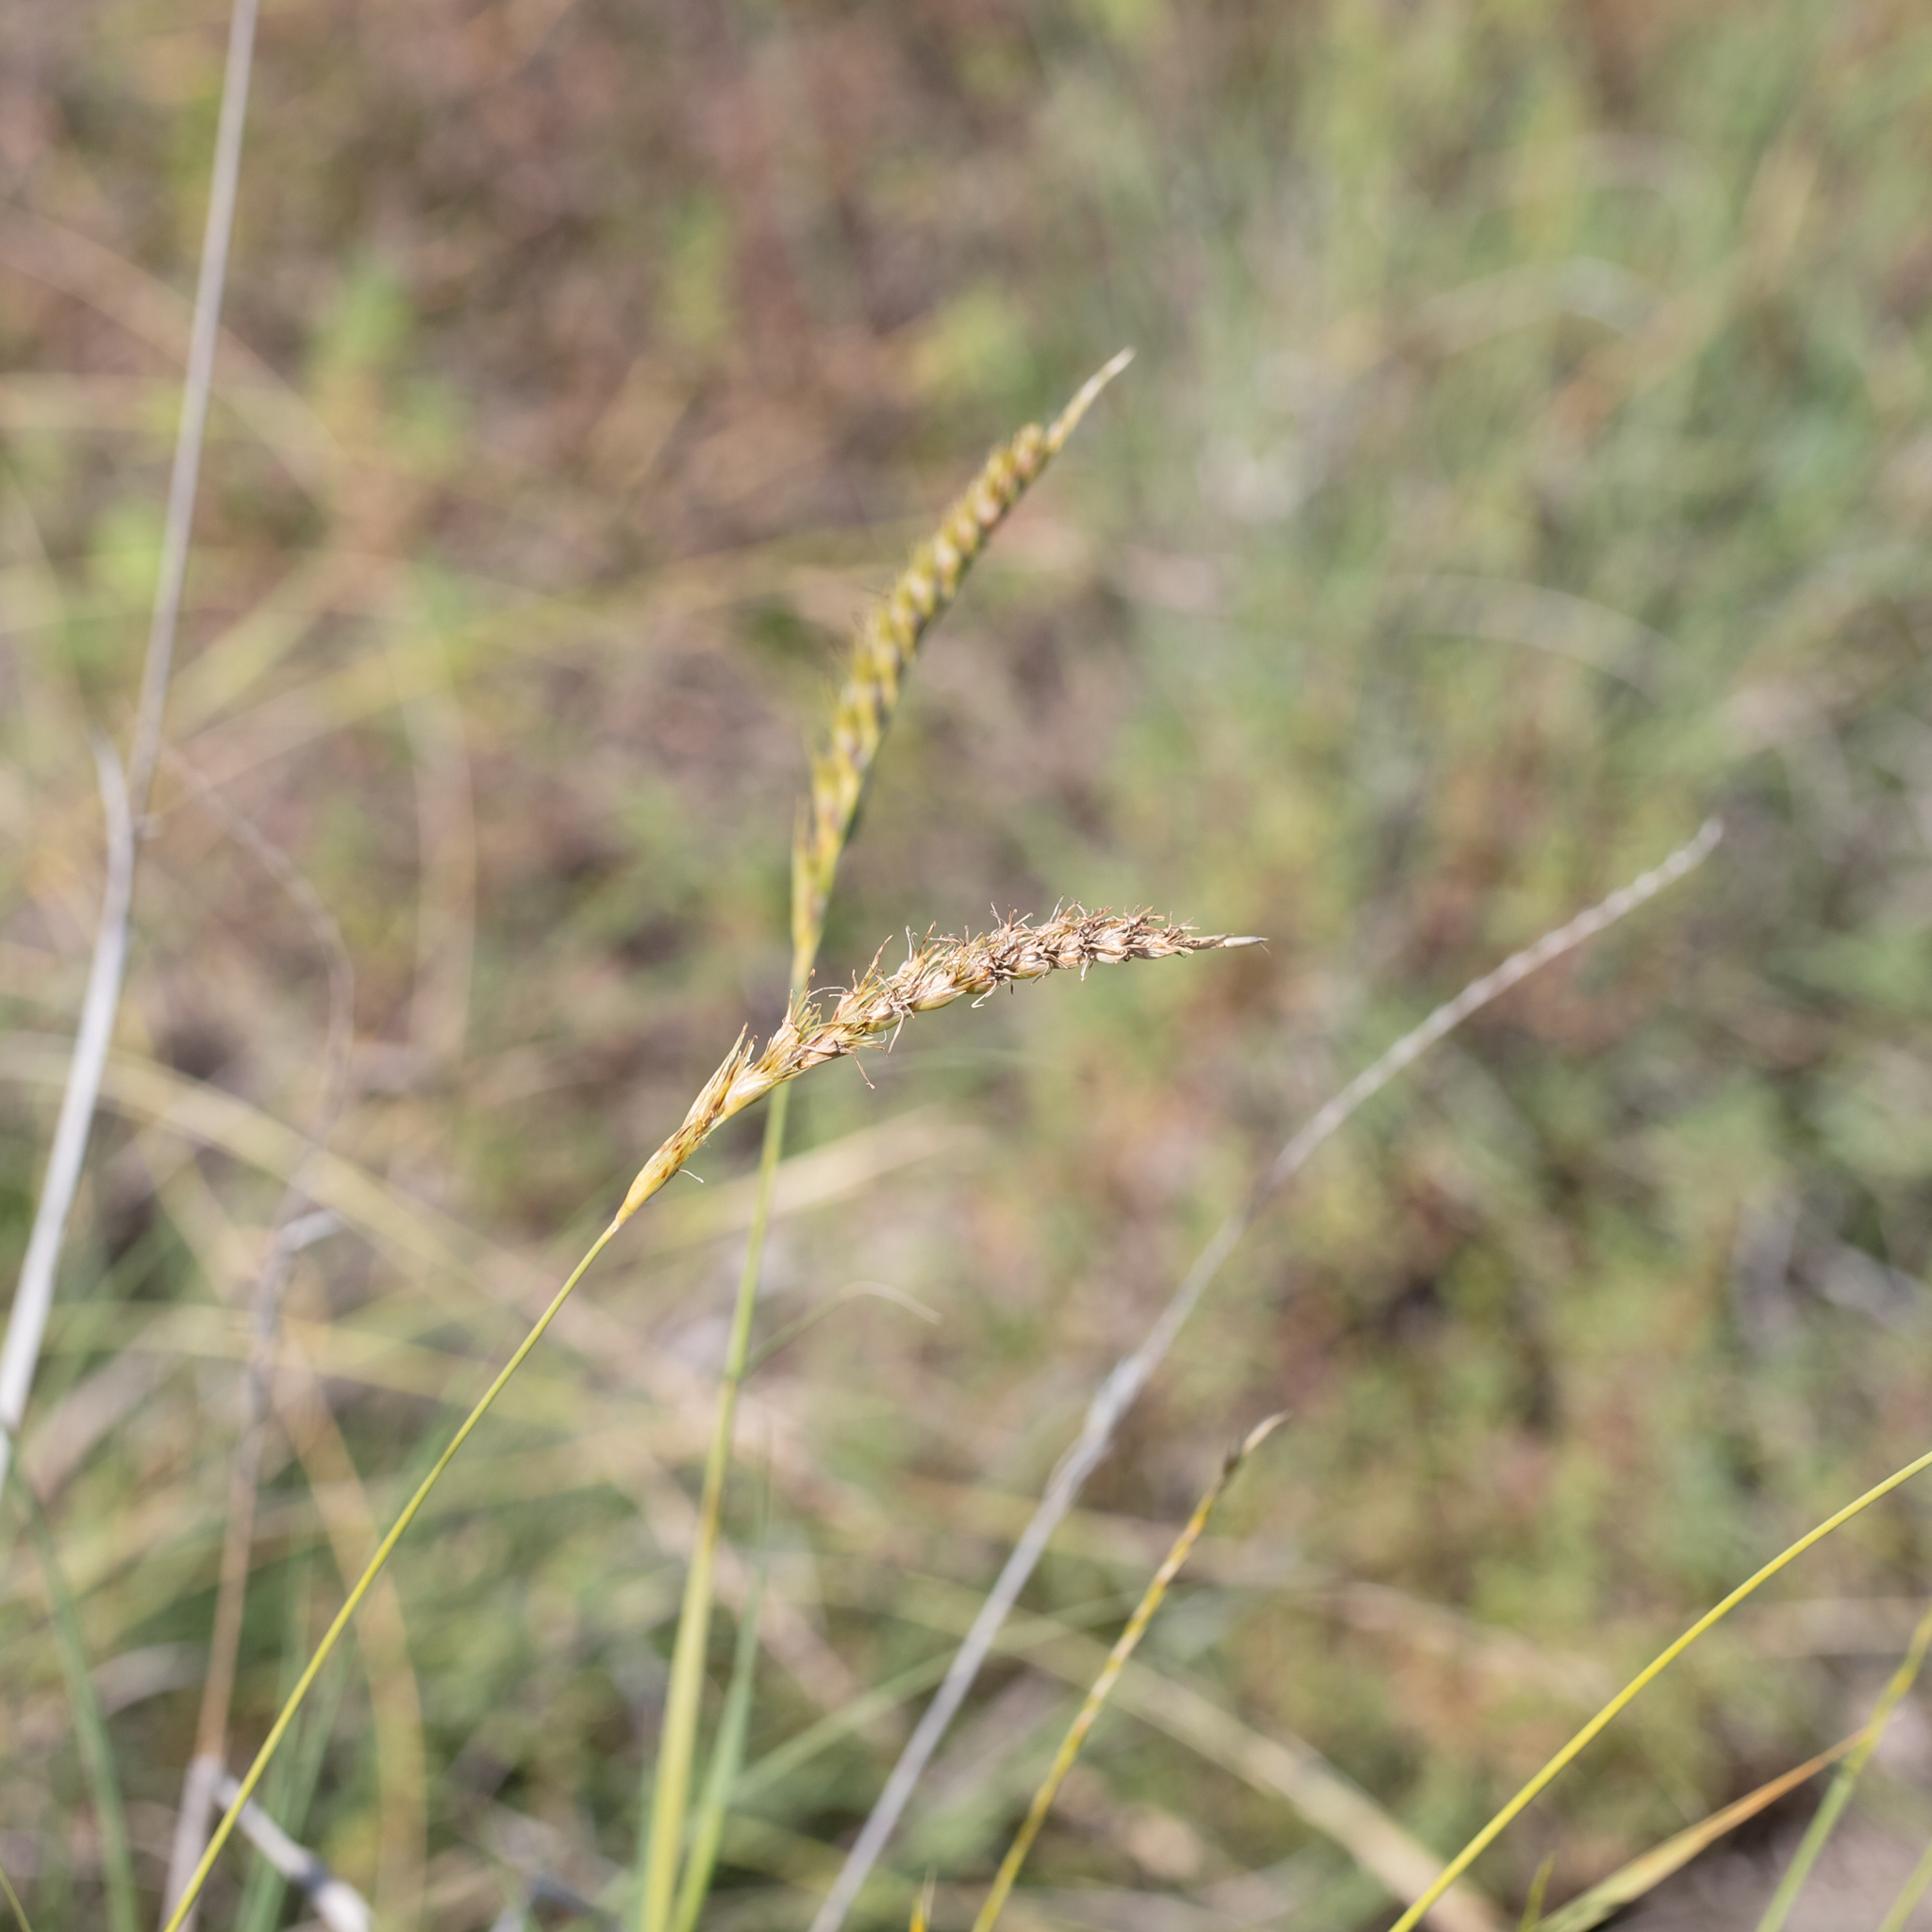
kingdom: Plantae
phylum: Tracheophyta
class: Liliopsida
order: Poales
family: Poaceae
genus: Astrebla
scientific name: Astrebla squarrosa
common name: Wheat-ear mitchell grass
